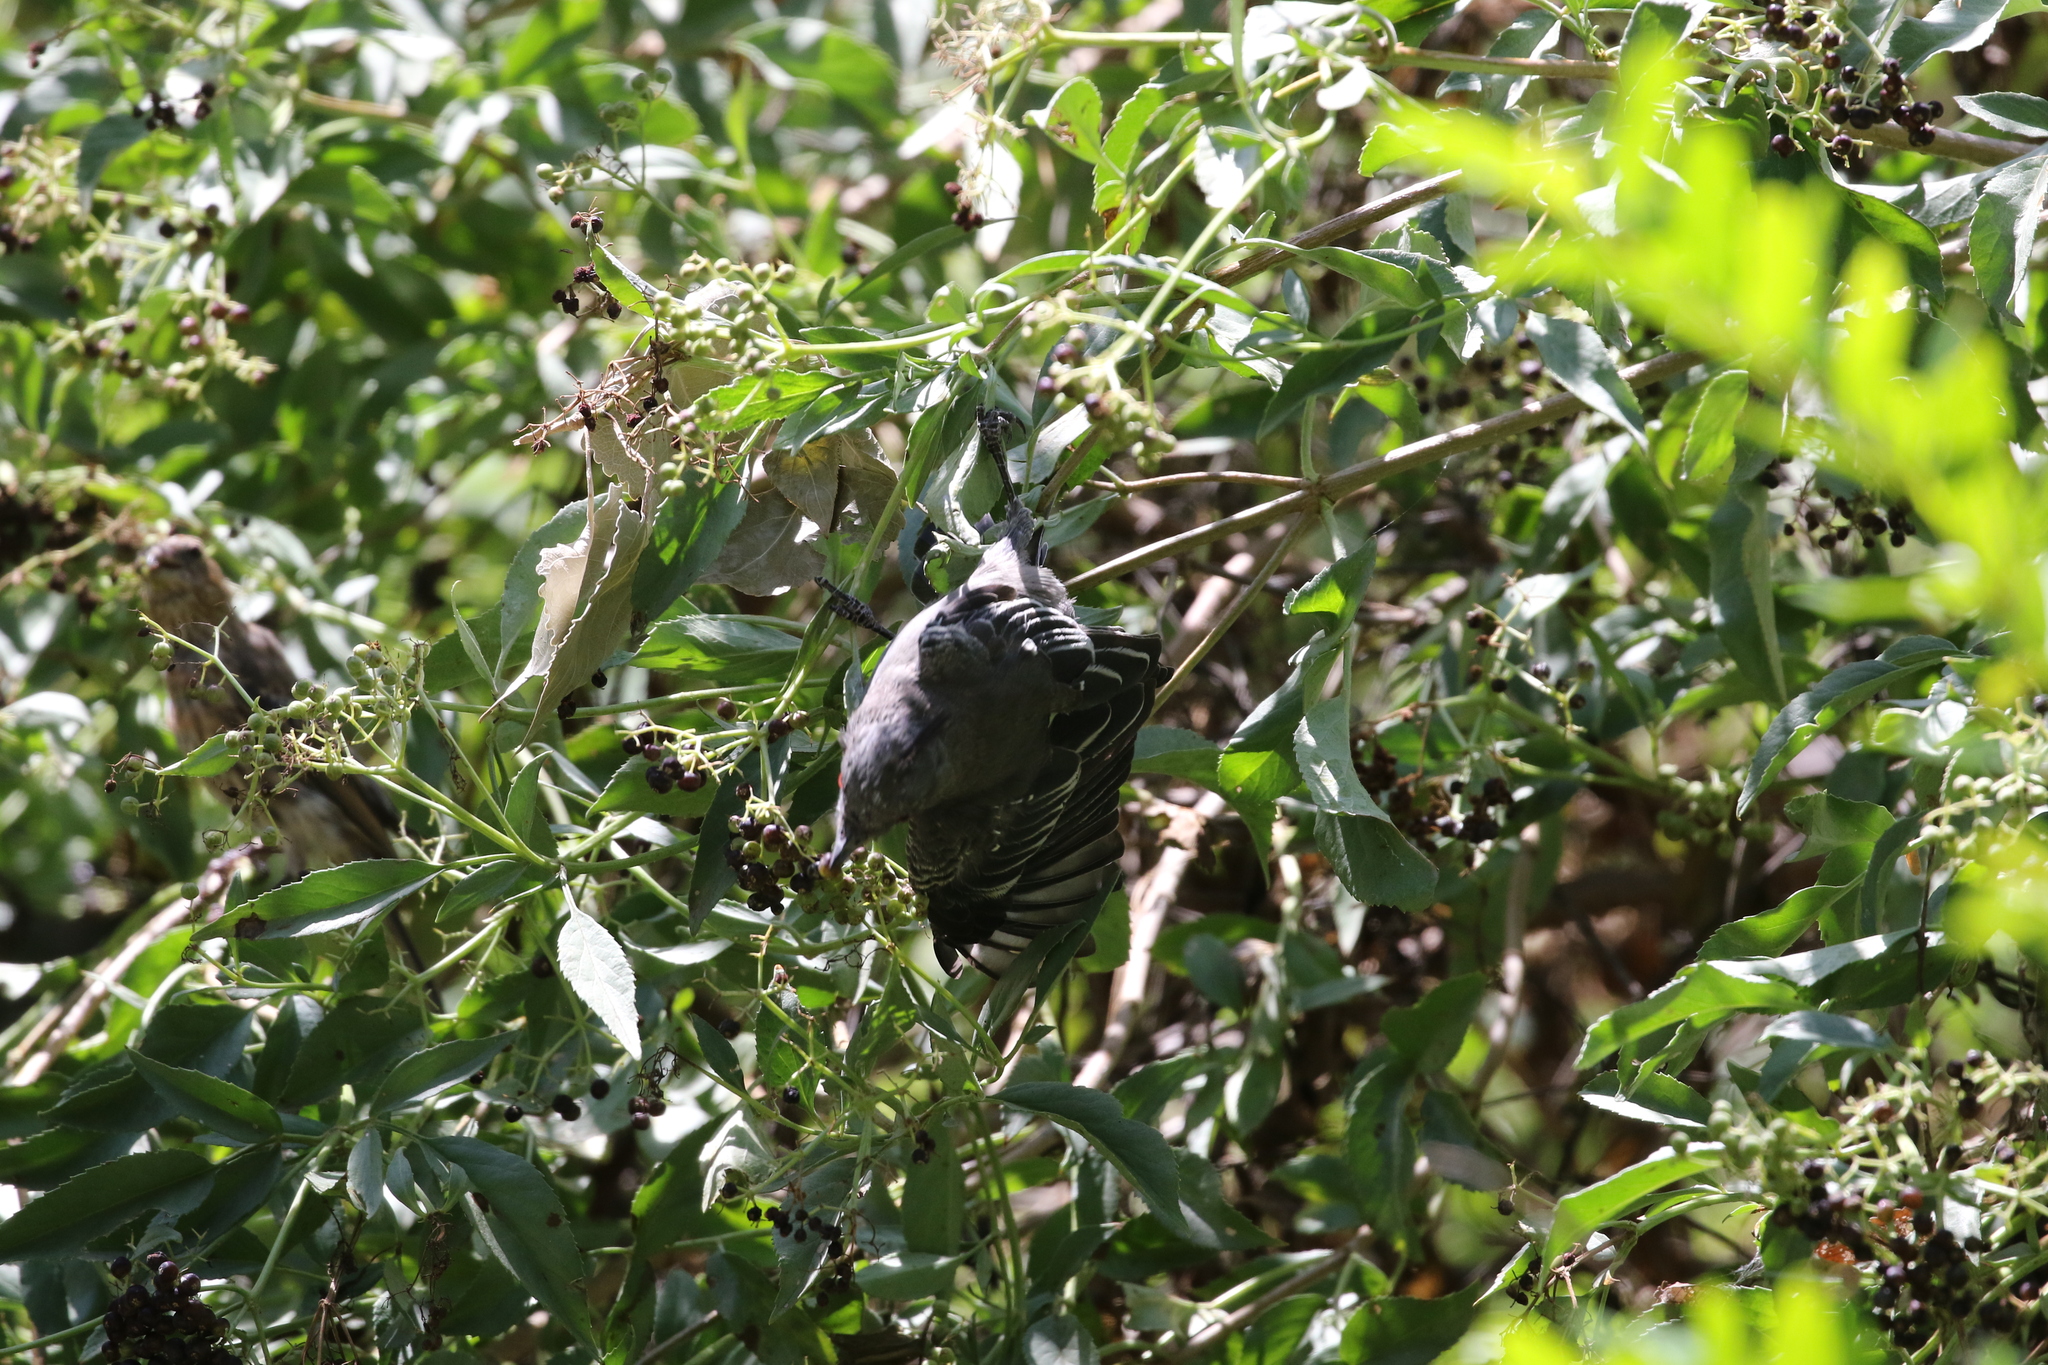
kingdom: Animalia
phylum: Chordata
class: Aves
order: Passeriformes
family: Ptilogonatidae
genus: Phainopepla
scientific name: Phainopepla nitens
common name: Phainopepla
